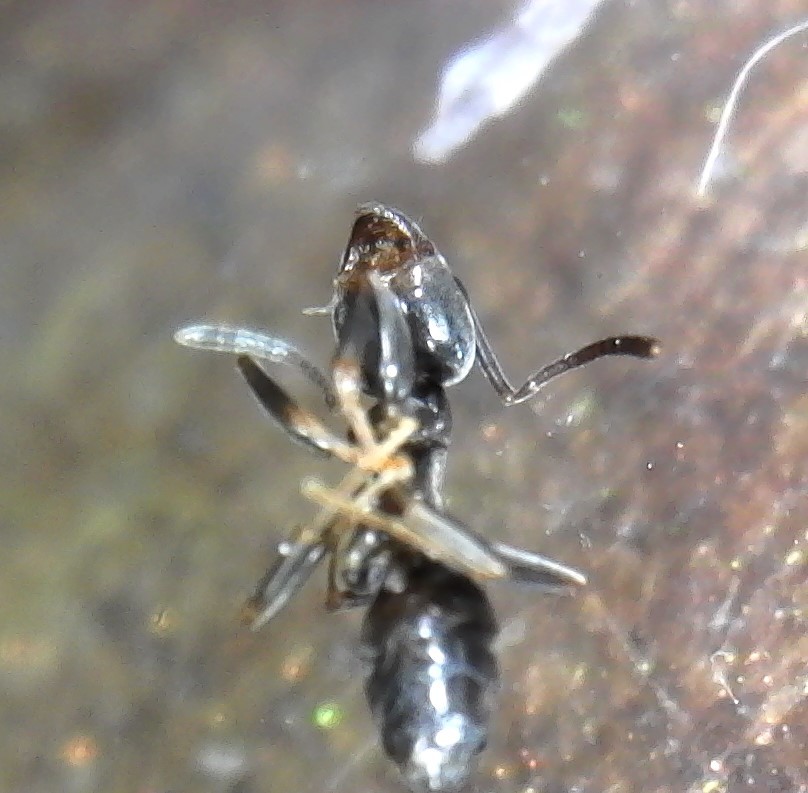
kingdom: Animalia
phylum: Arthropoda
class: Insecta
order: Hymenoptera
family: Formicidae
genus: Tapinoma
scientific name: Tapinoma sessile
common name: Odorous house ant
